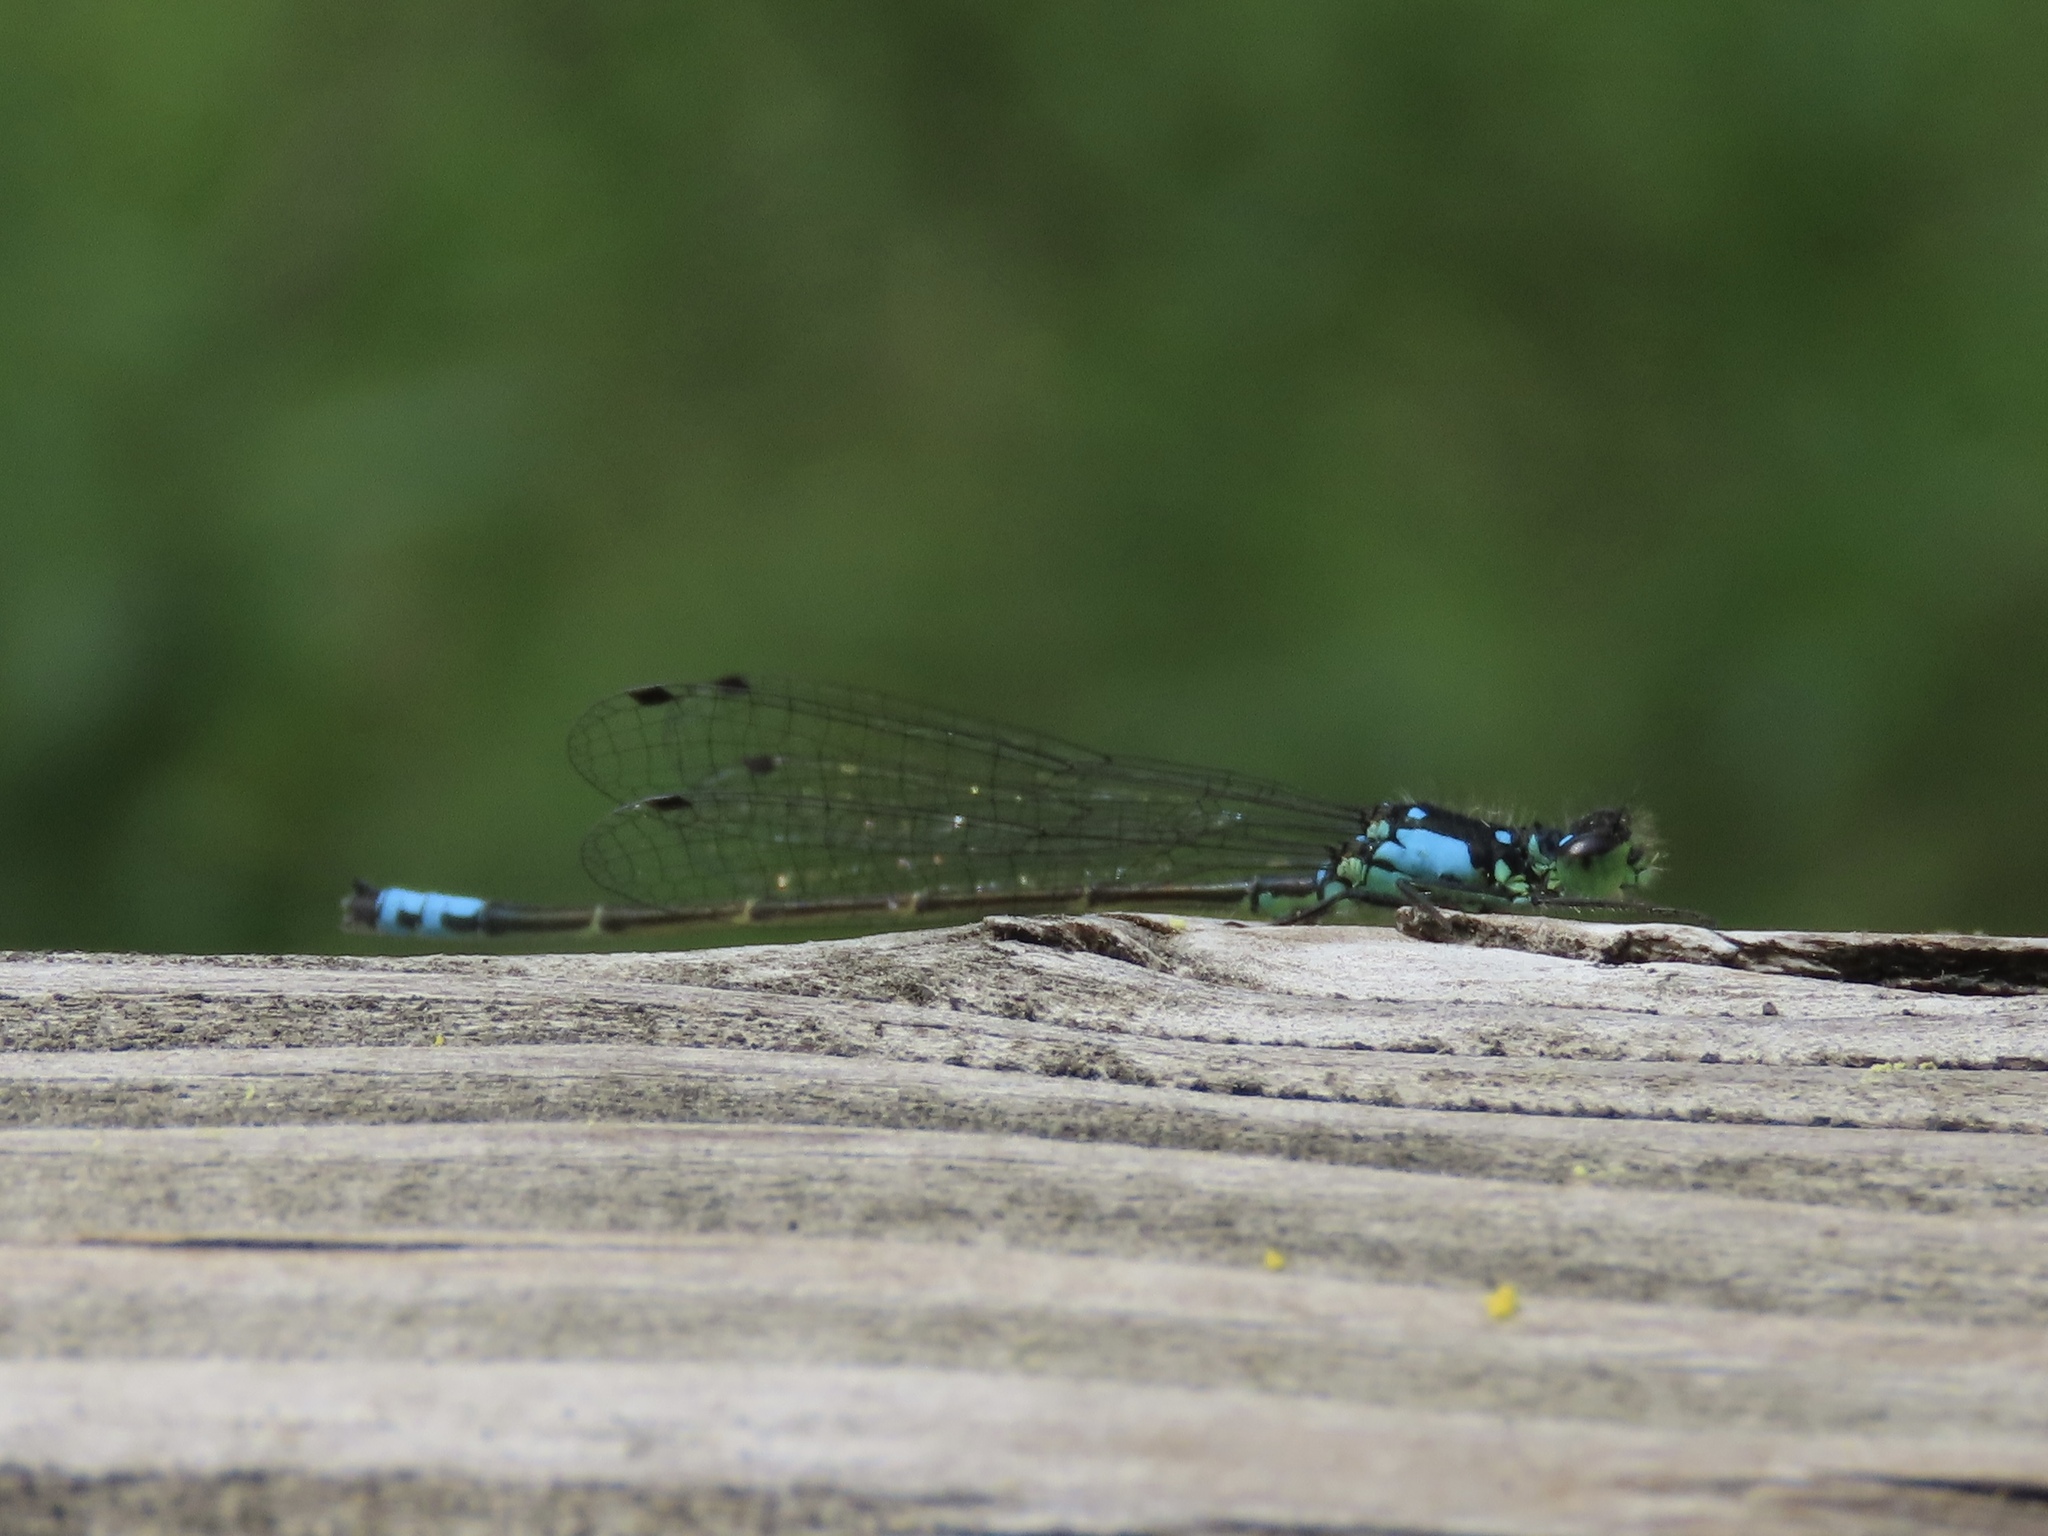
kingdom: Animalia
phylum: Arthropoda
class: Insecta
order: Odonata
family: Coenagrionidae
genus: Ischnura
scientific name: Ischnura cervula
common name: Pacific forktail
